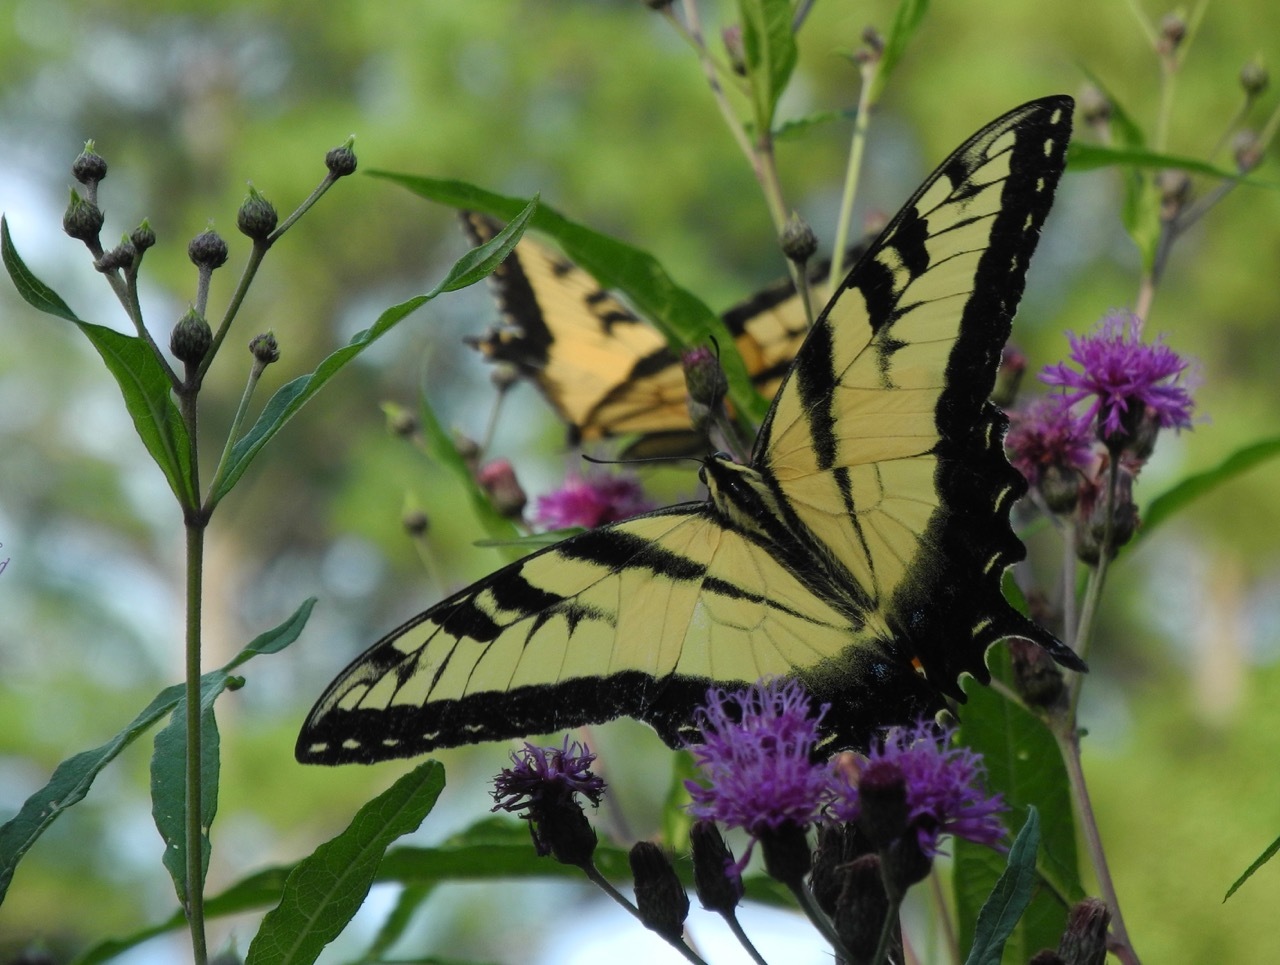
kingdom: Animalia
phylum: Arthropoda
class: Insecta
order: Lepidoptera
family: Papilionidae
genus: Papilio
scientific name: Papilio glaucus
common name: Tiger swallowtail
